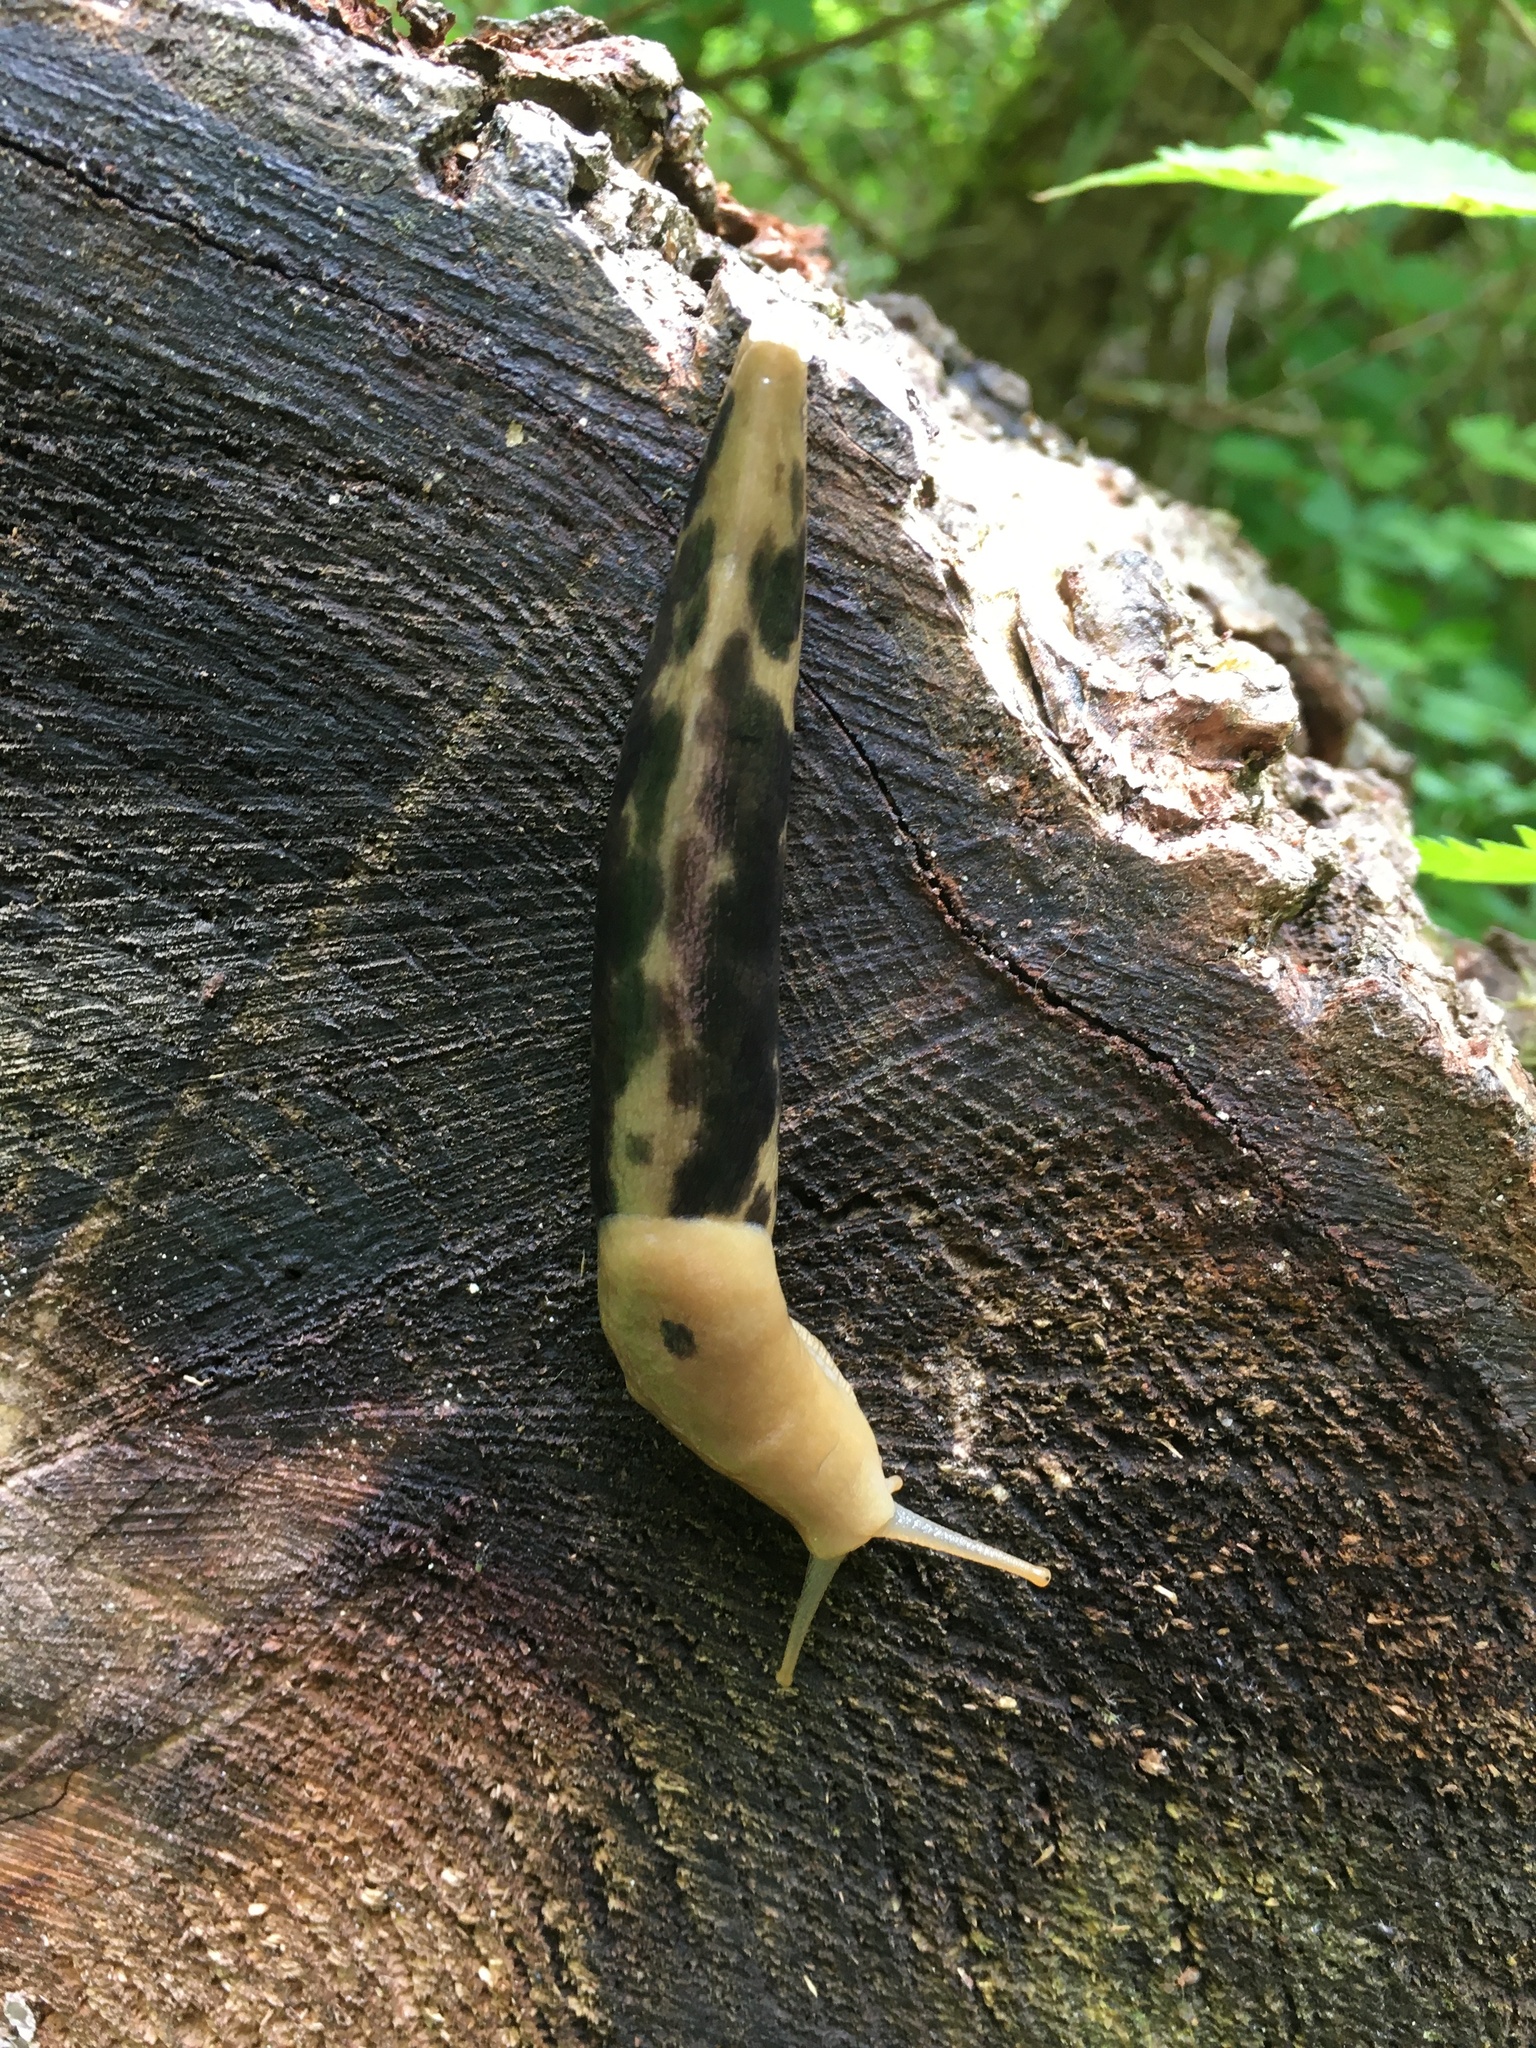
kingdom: Animalia
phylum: Mollusca
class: Gastropoda
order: Stylommatophora
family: Ariolimacidae
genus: Ariolimax
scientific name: Ariolimax columbianus
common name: Pacific banana slug
